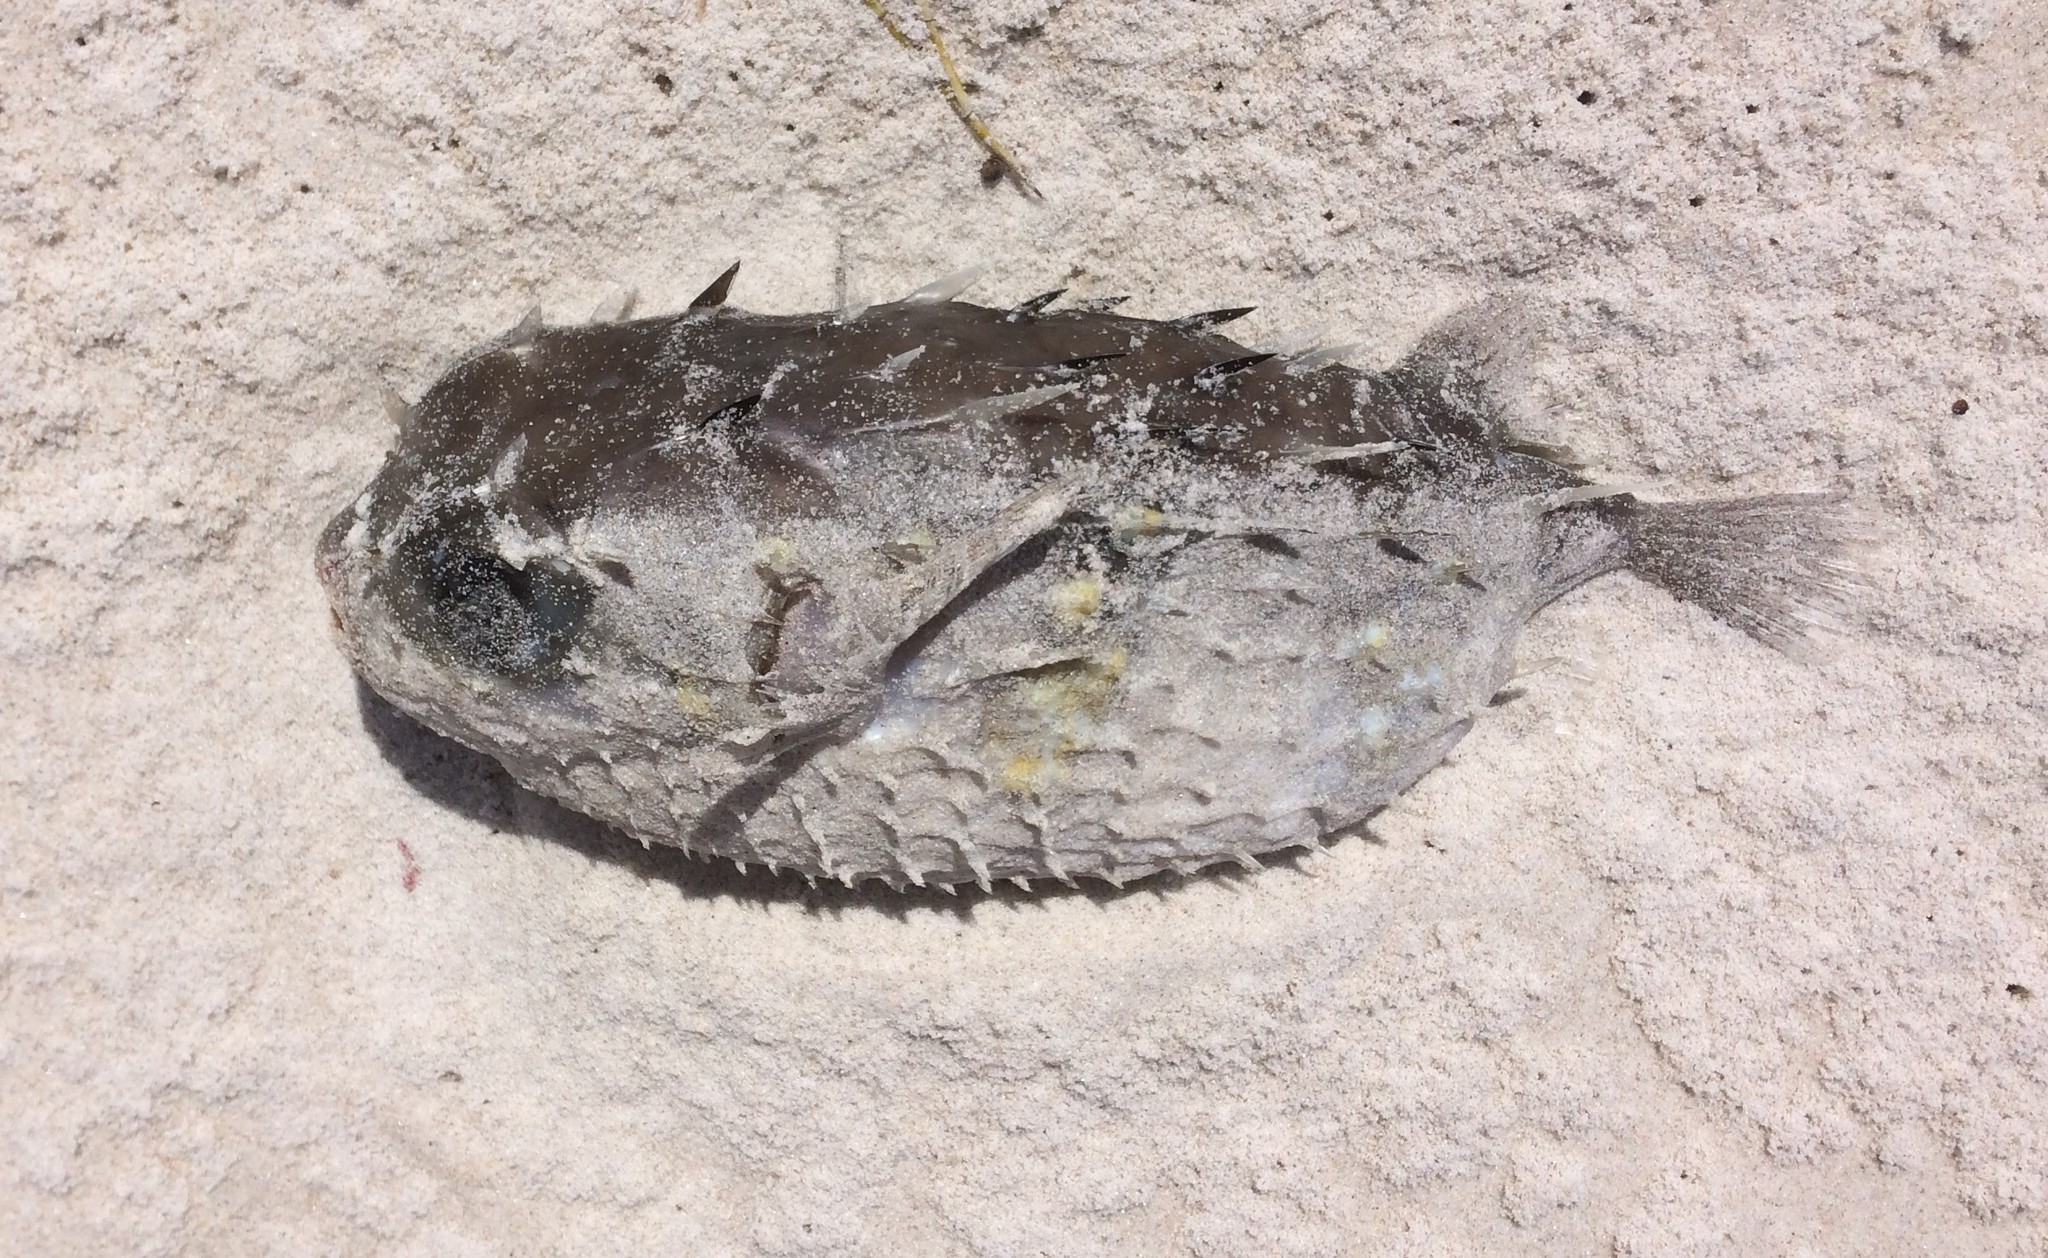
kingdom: Animalia
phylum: Chordata
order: Tetraodontiformes
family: Diodontidae
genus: Allomycterus
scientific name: Allomycterus pilatus
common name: No common name
